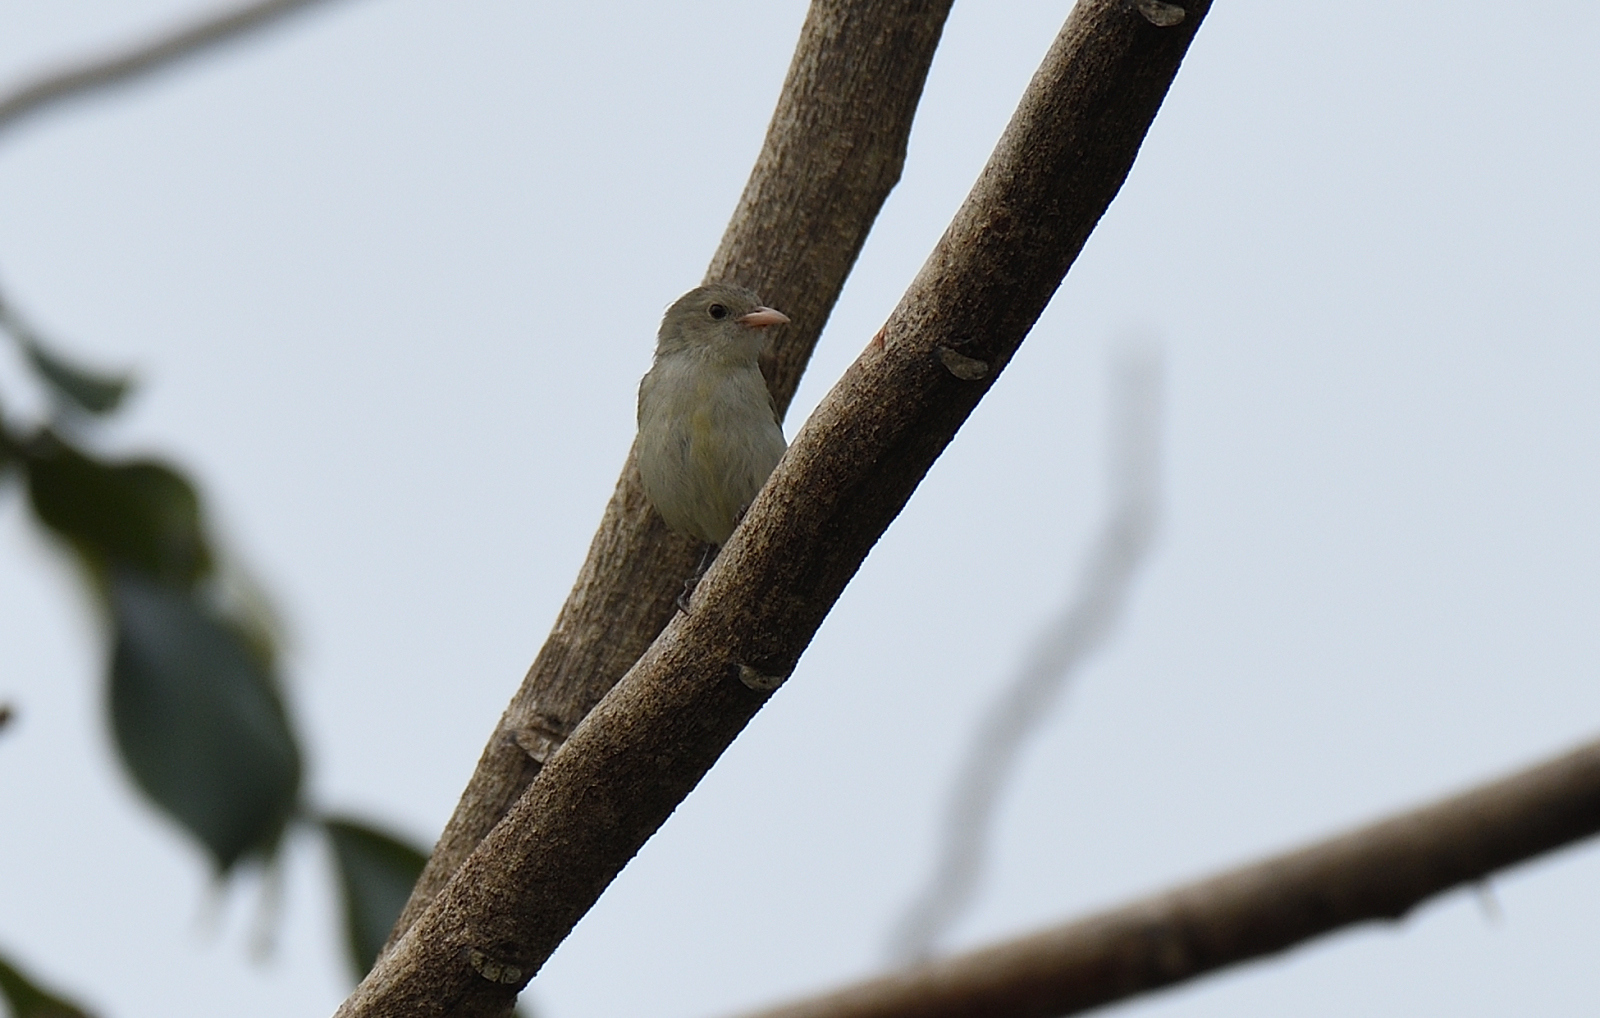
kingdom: Animalia
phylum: Chordata
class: Aves
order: Passeriformes
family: Dicaeidae
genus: Dicaeum
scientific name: Dicaeum erythrorhynchos
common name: Pale-billed flowerpecker
